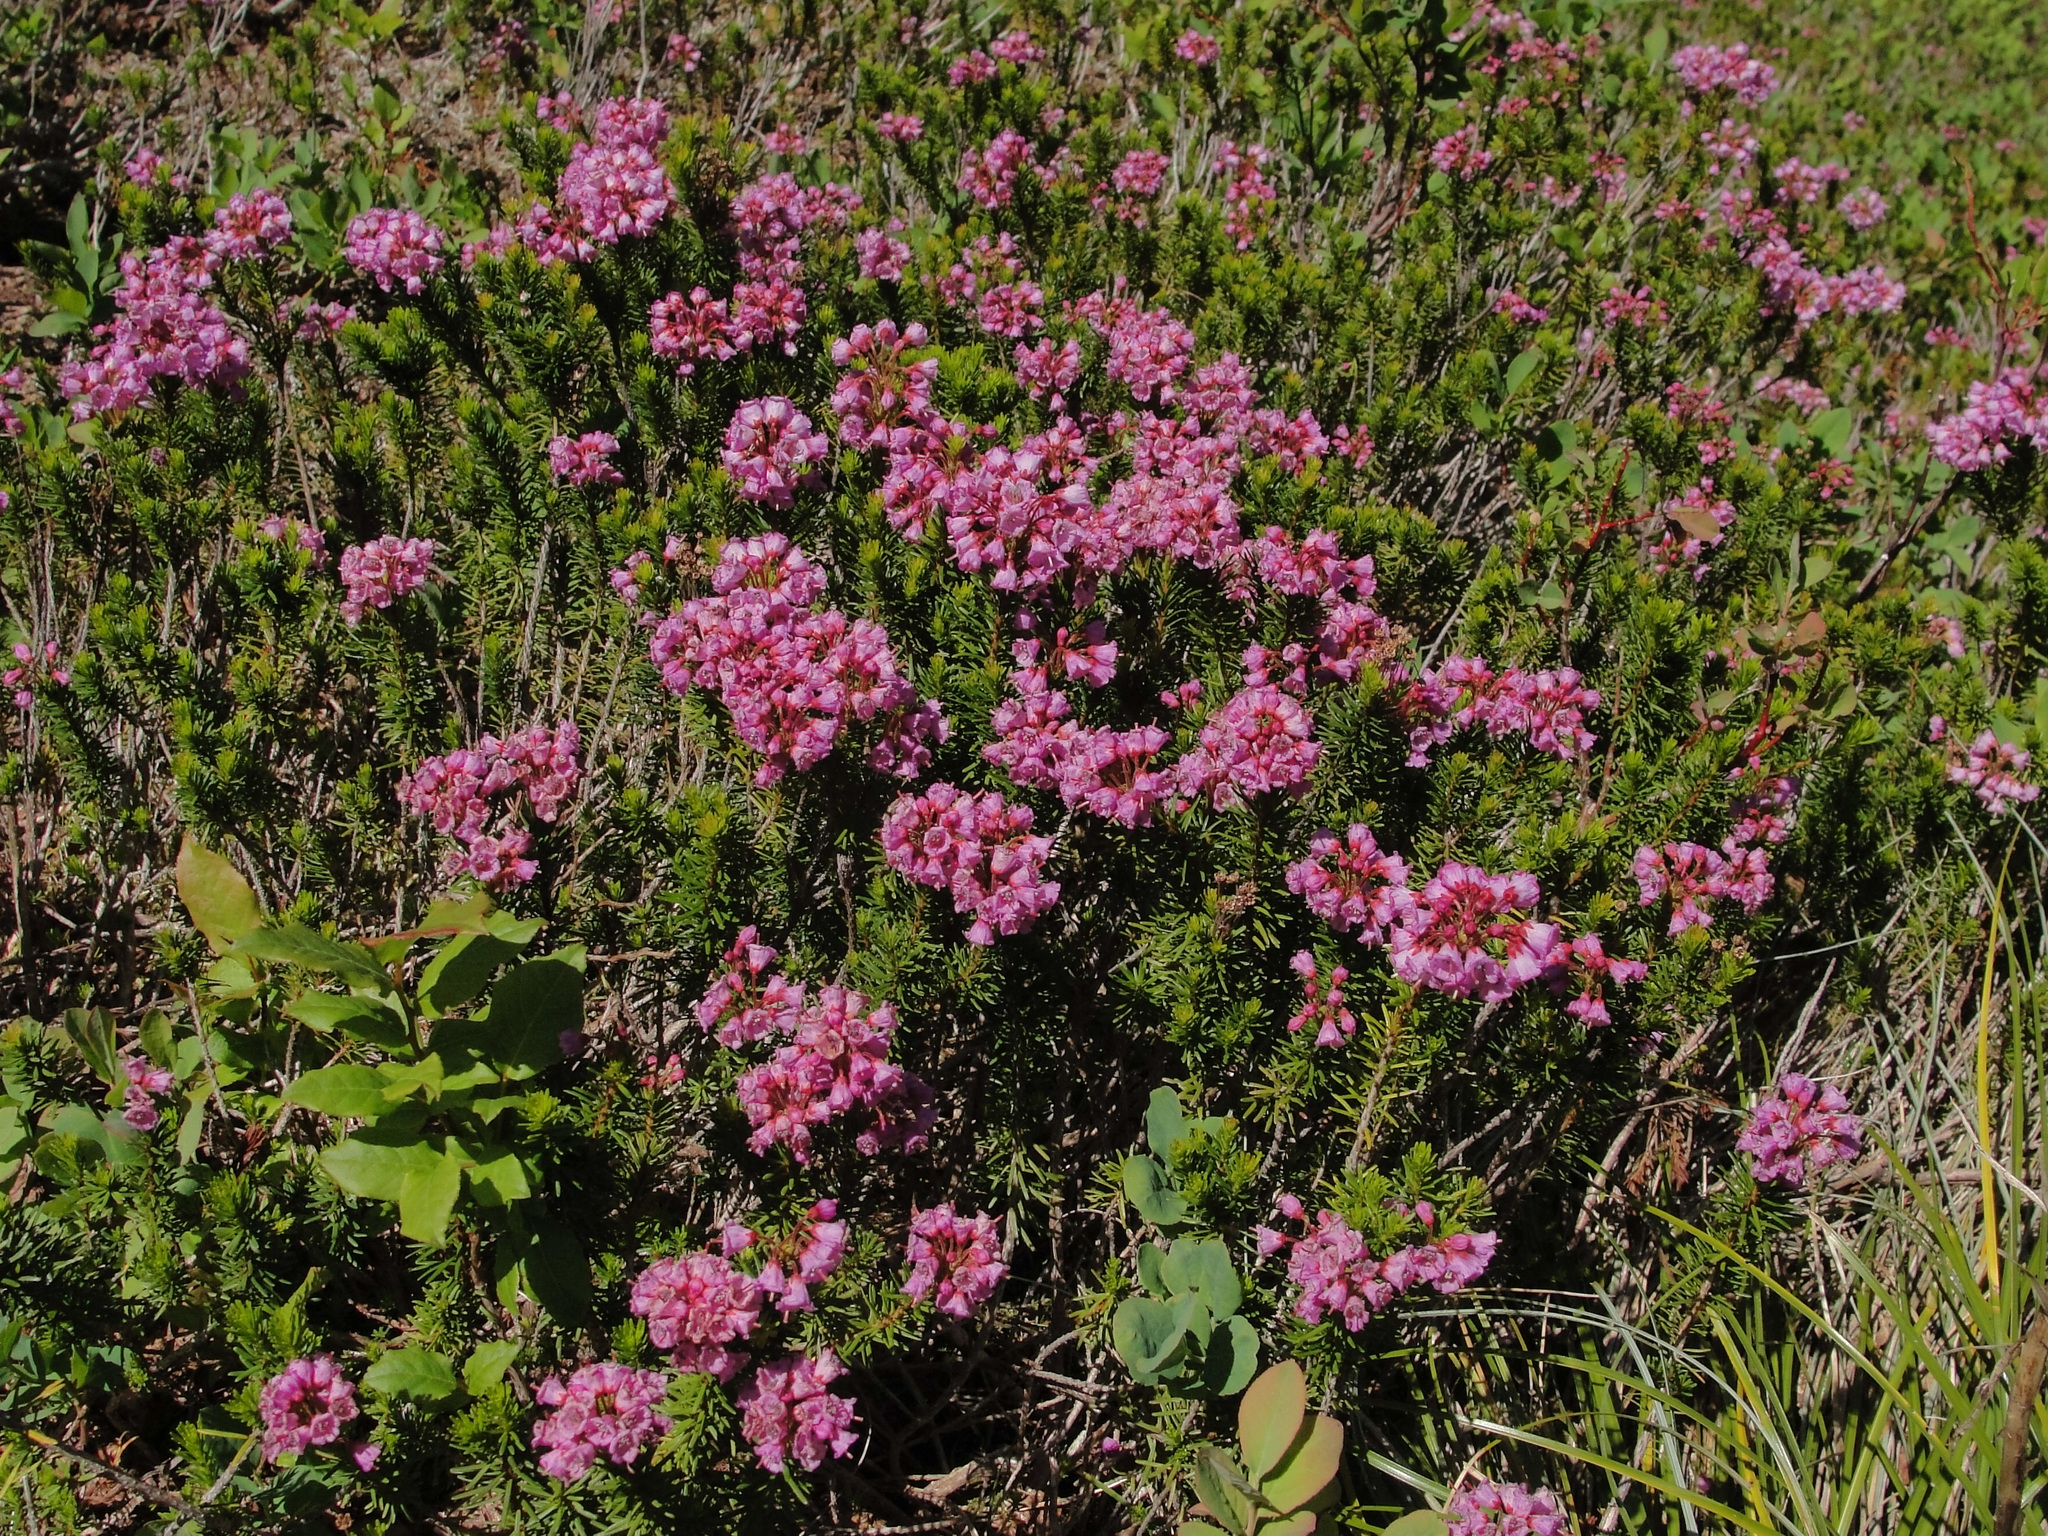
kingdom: Plantae
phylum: Tracheophyta
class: Magnoliopsida
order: Ericales
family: Ericaceae
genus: Phyllodoce
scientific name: Phyllodoce empetriformis
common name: Pink mountain heather
